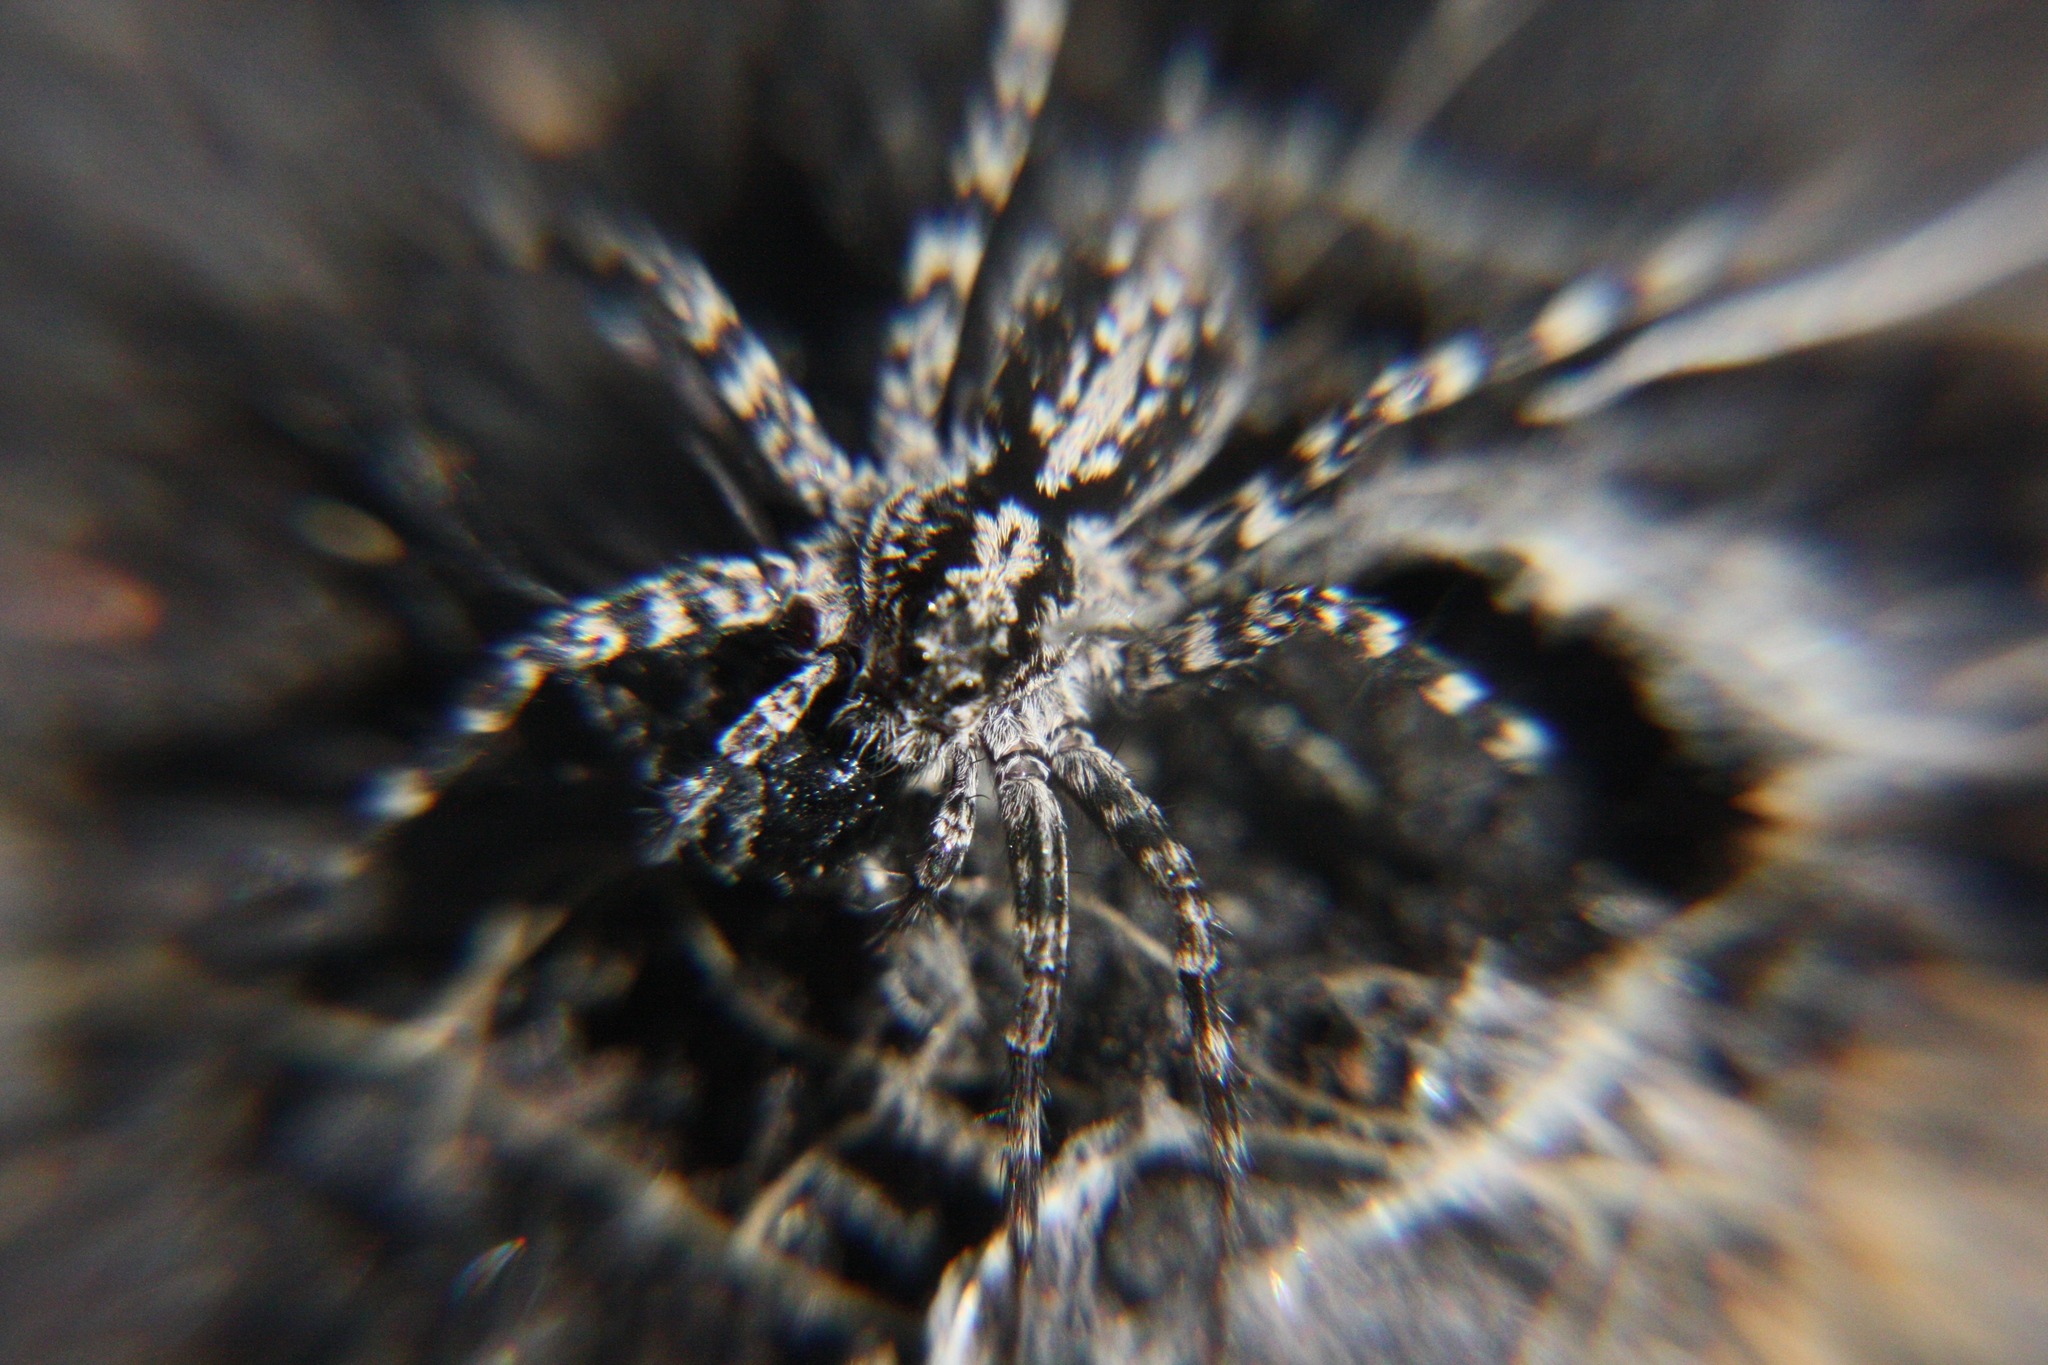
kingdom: Animalia
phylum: Arthropoda
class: Arachnida
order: Araneae
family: Lycosidae
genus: Acantholycosa
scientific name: Acantholycosa lignaria
